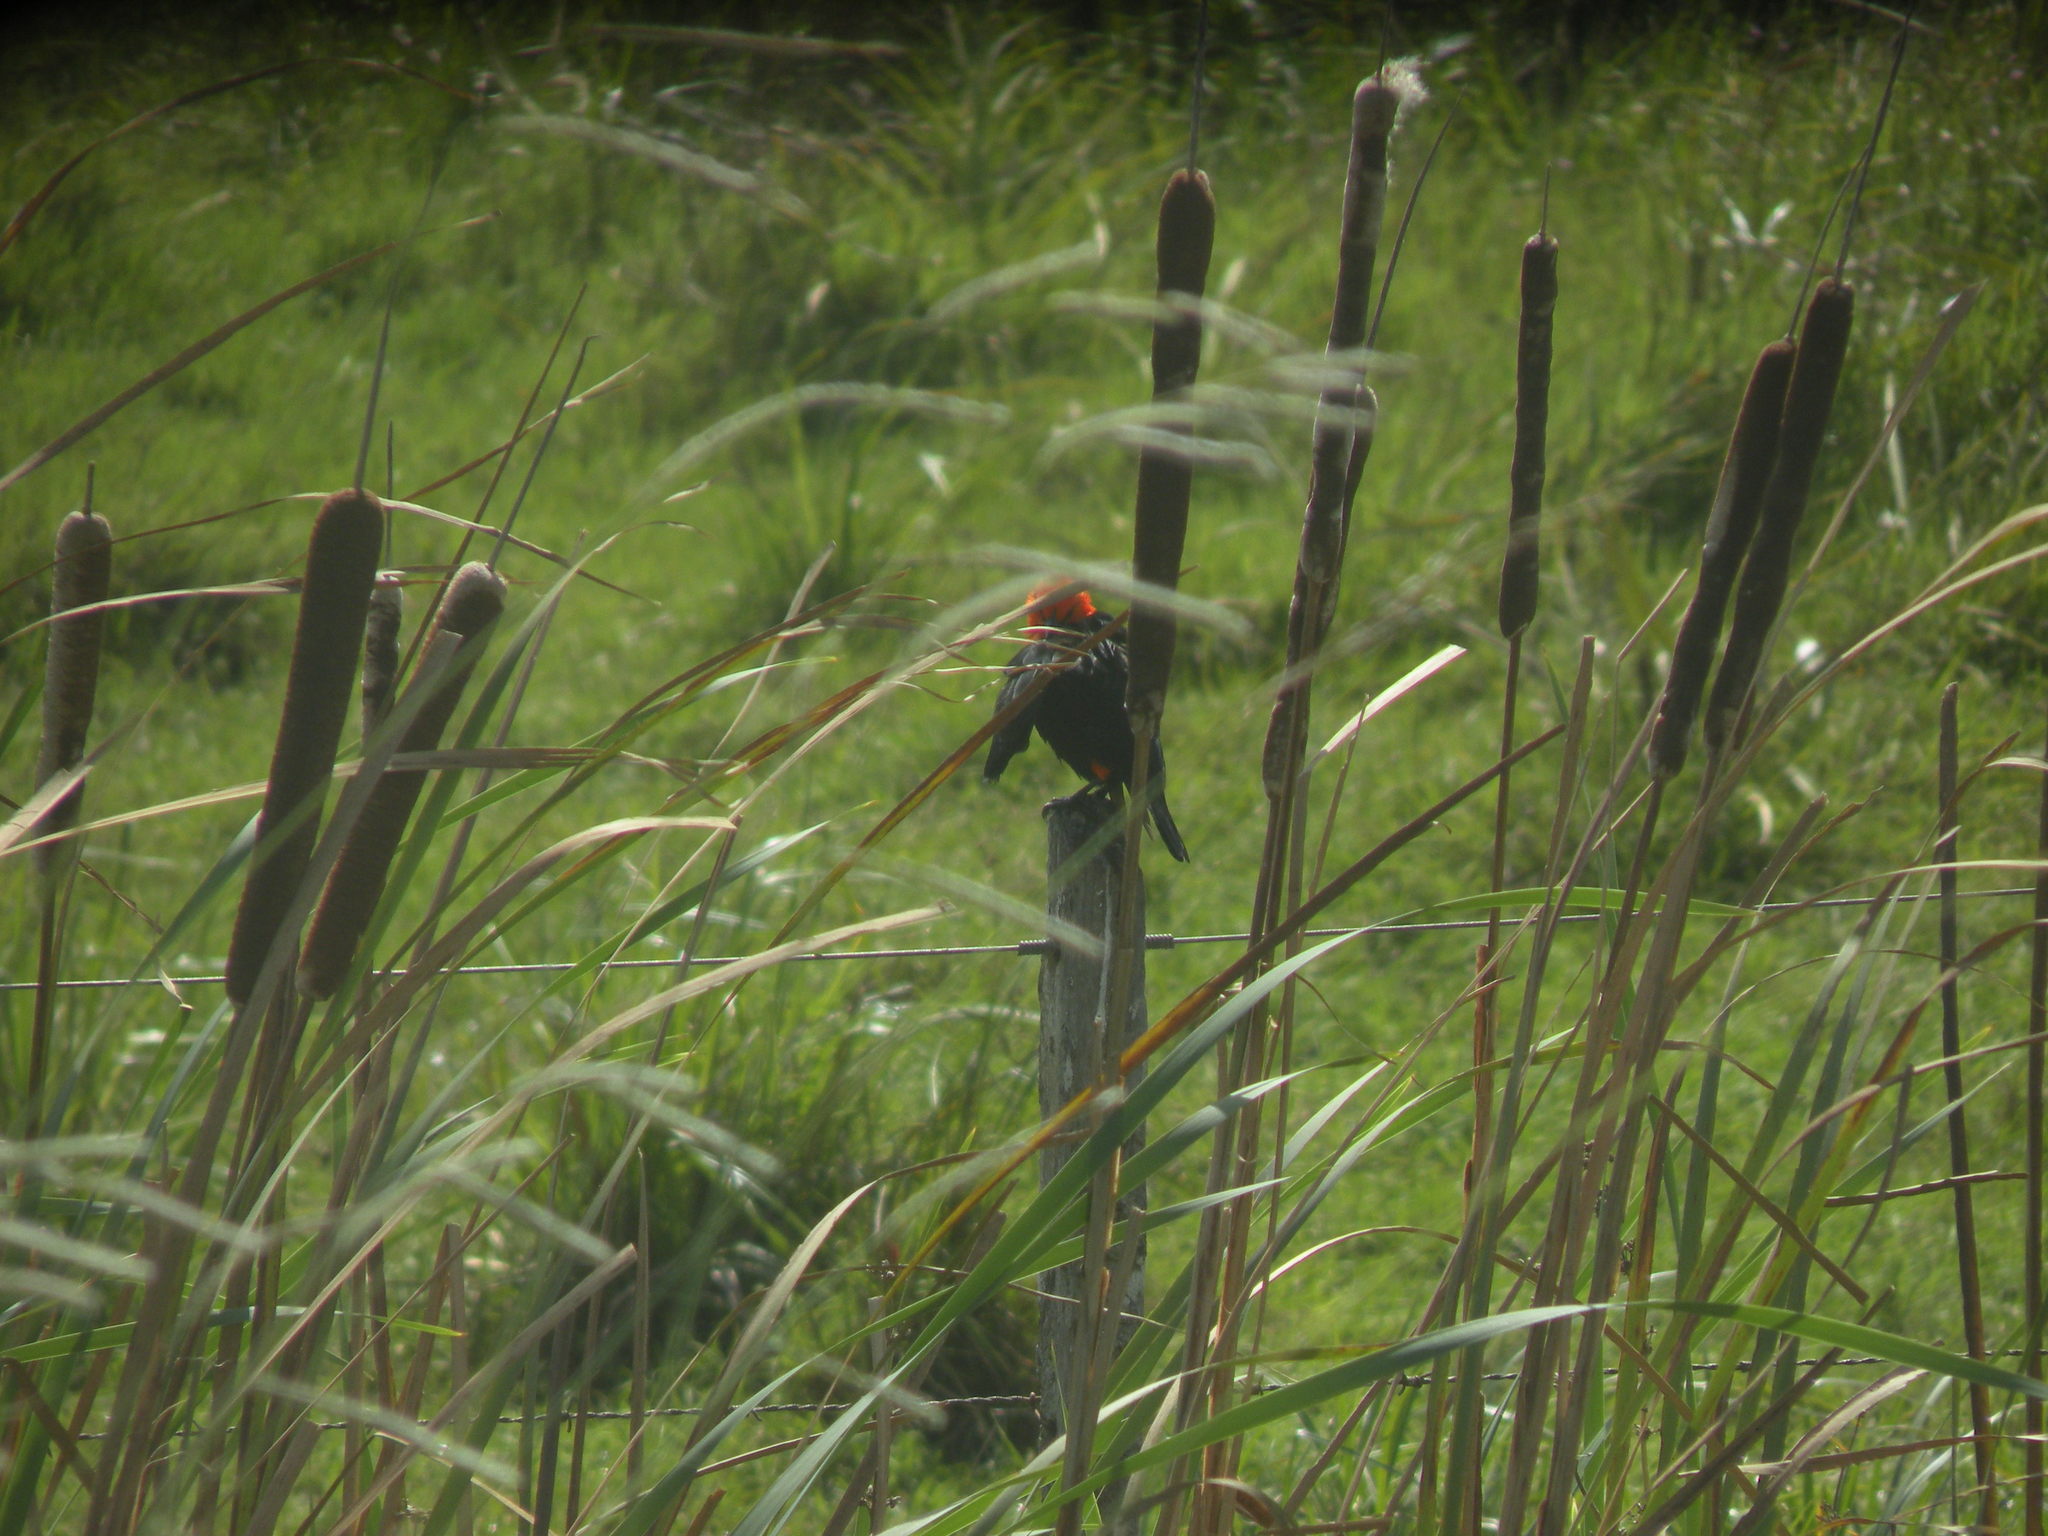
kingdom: Animalia
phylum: Chordata
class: Aves
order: Passeriformes
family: Icteridae
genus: Amblyramphus
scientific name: Amblyramphus holosericeus
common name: Scarlet-headed blackbird
